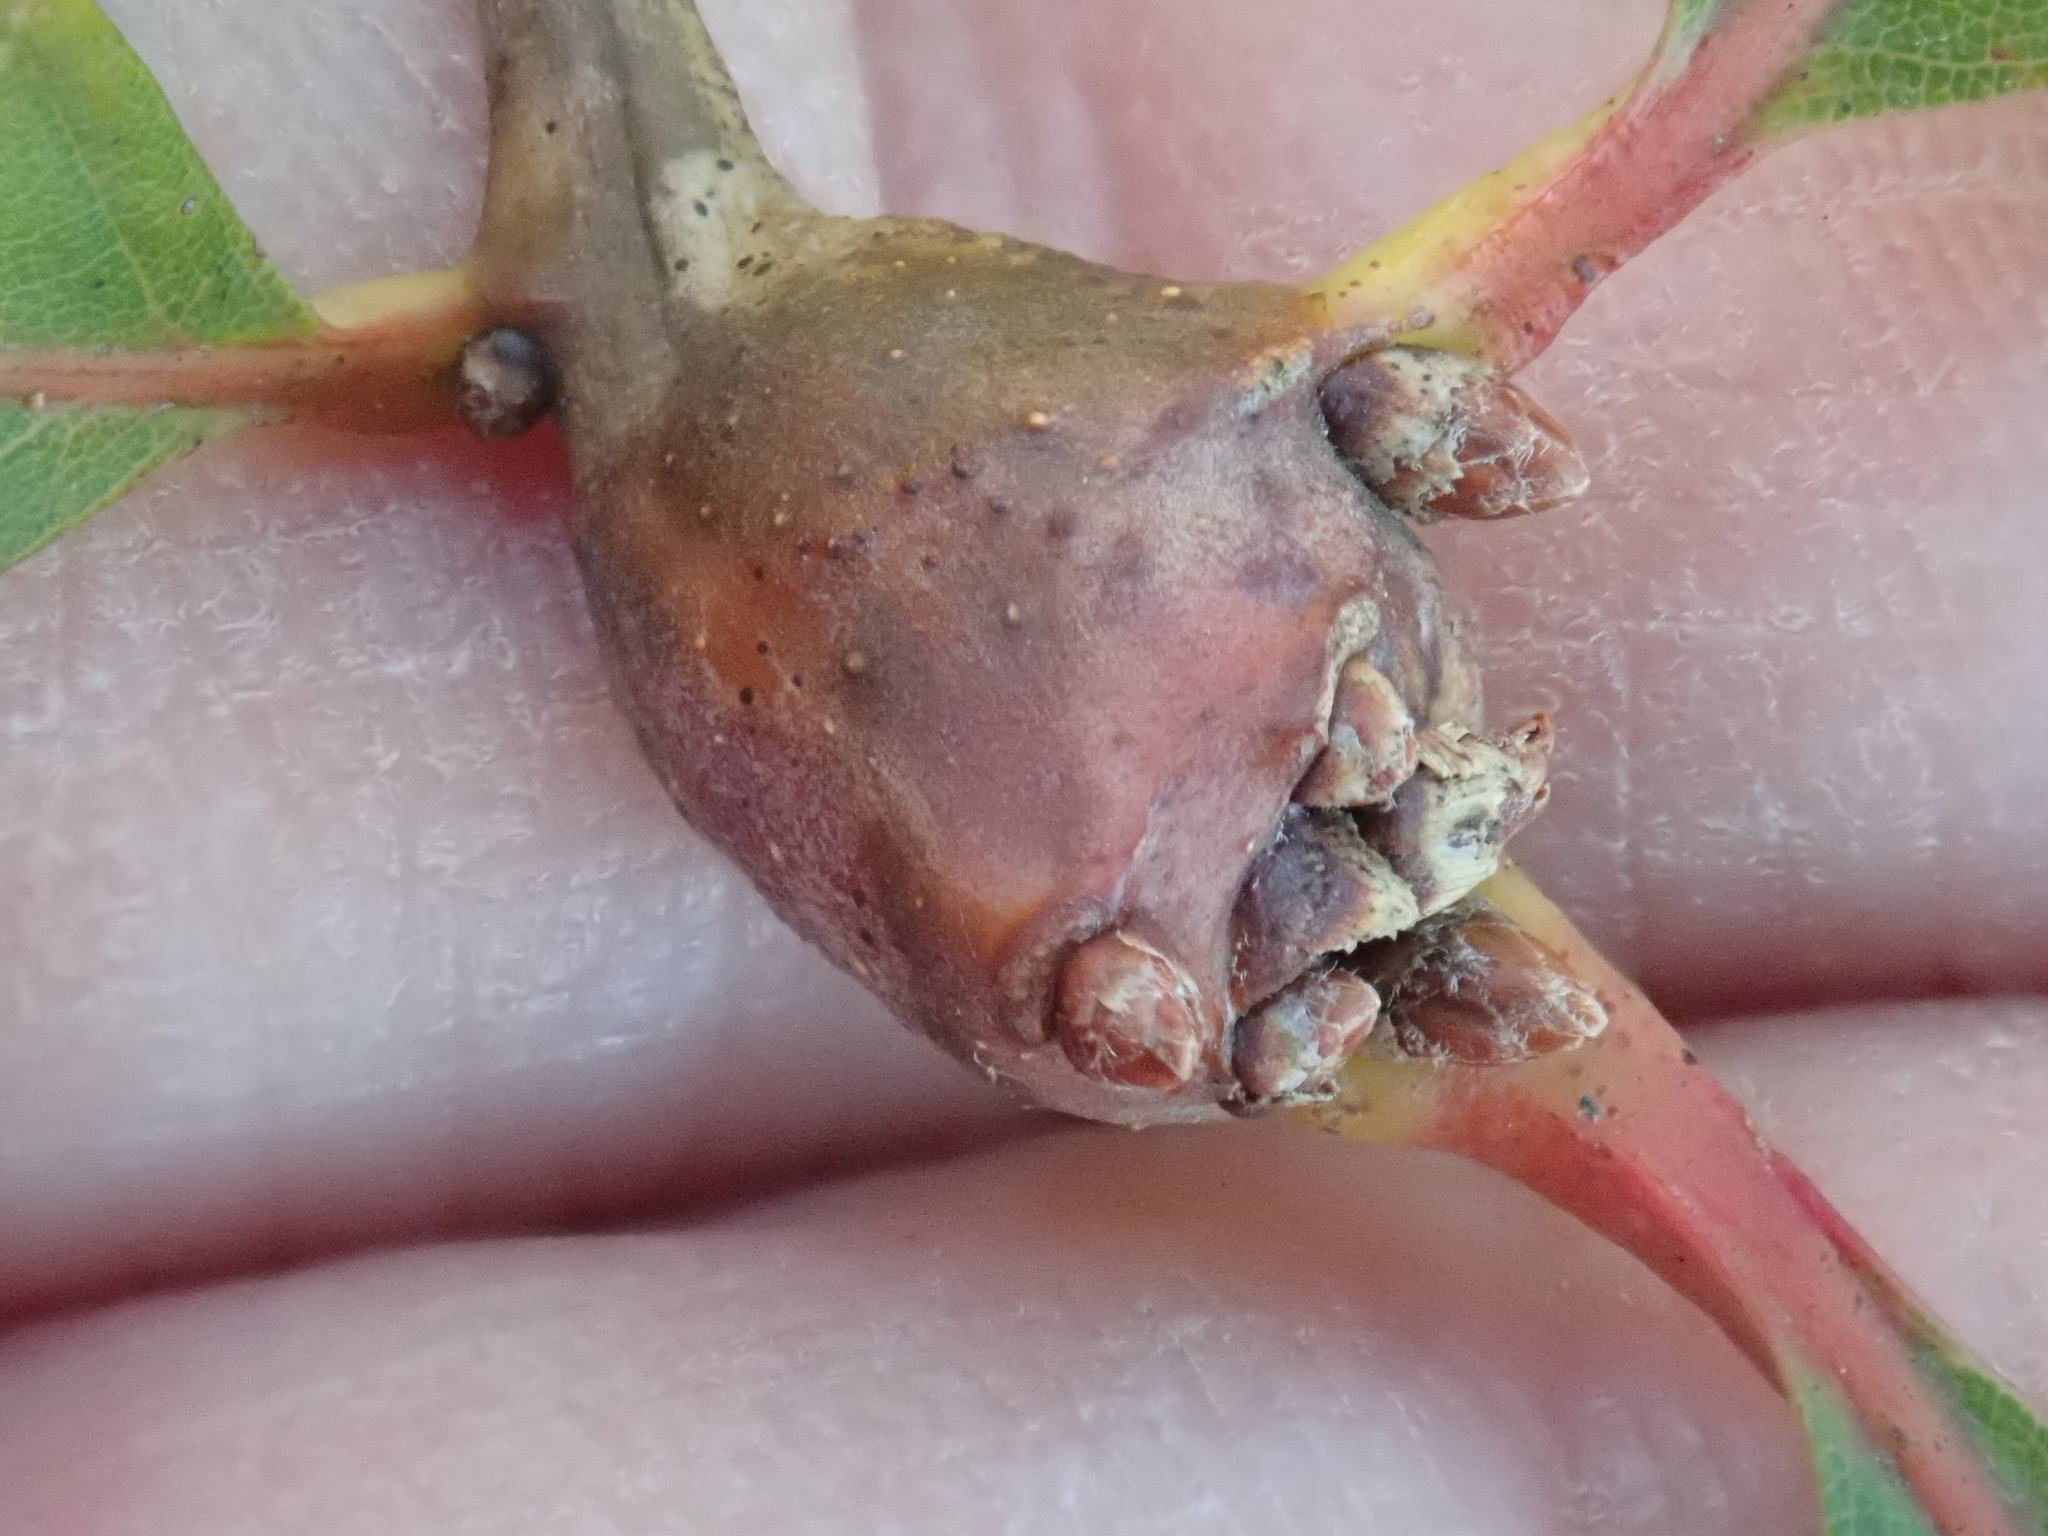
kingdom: Animalia
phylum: Arthropoda
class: Insecta
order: Hymenoptera
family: Cynipidae
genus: Callirhytis
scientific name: Callirhytis clavula
